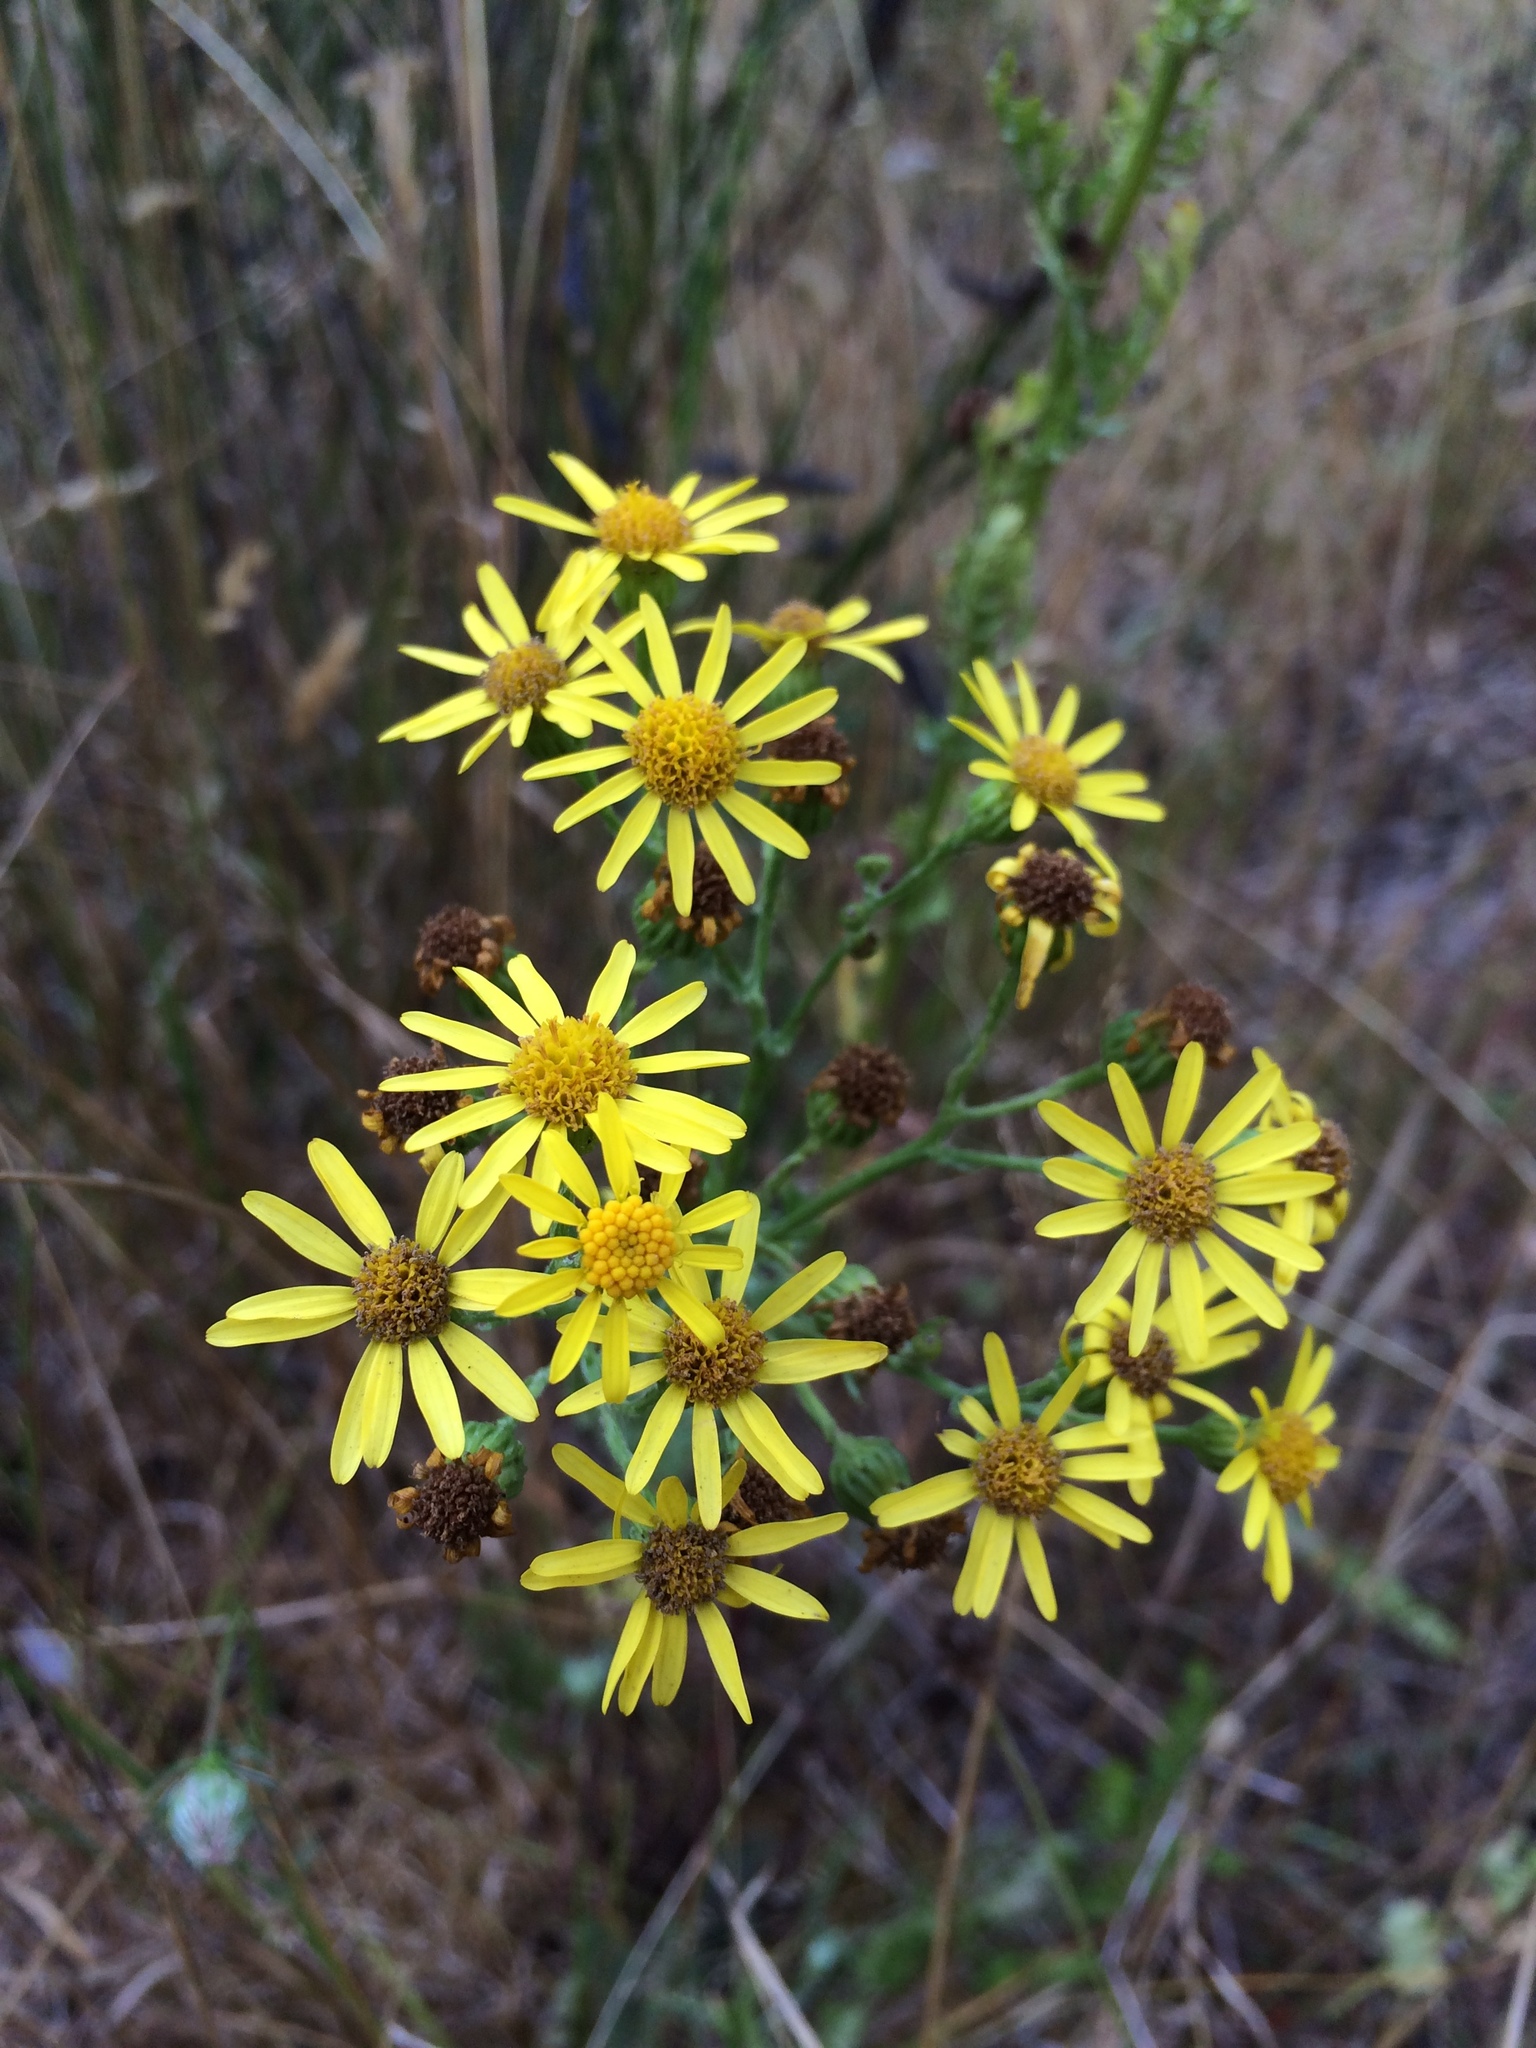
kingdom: Plantae
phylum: Tracheophyta
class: Magnoliopsida
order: Asterales
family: Asteraceae
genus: Jacobaea
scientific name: Jacobaea vulgaris
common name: Stinking willie
